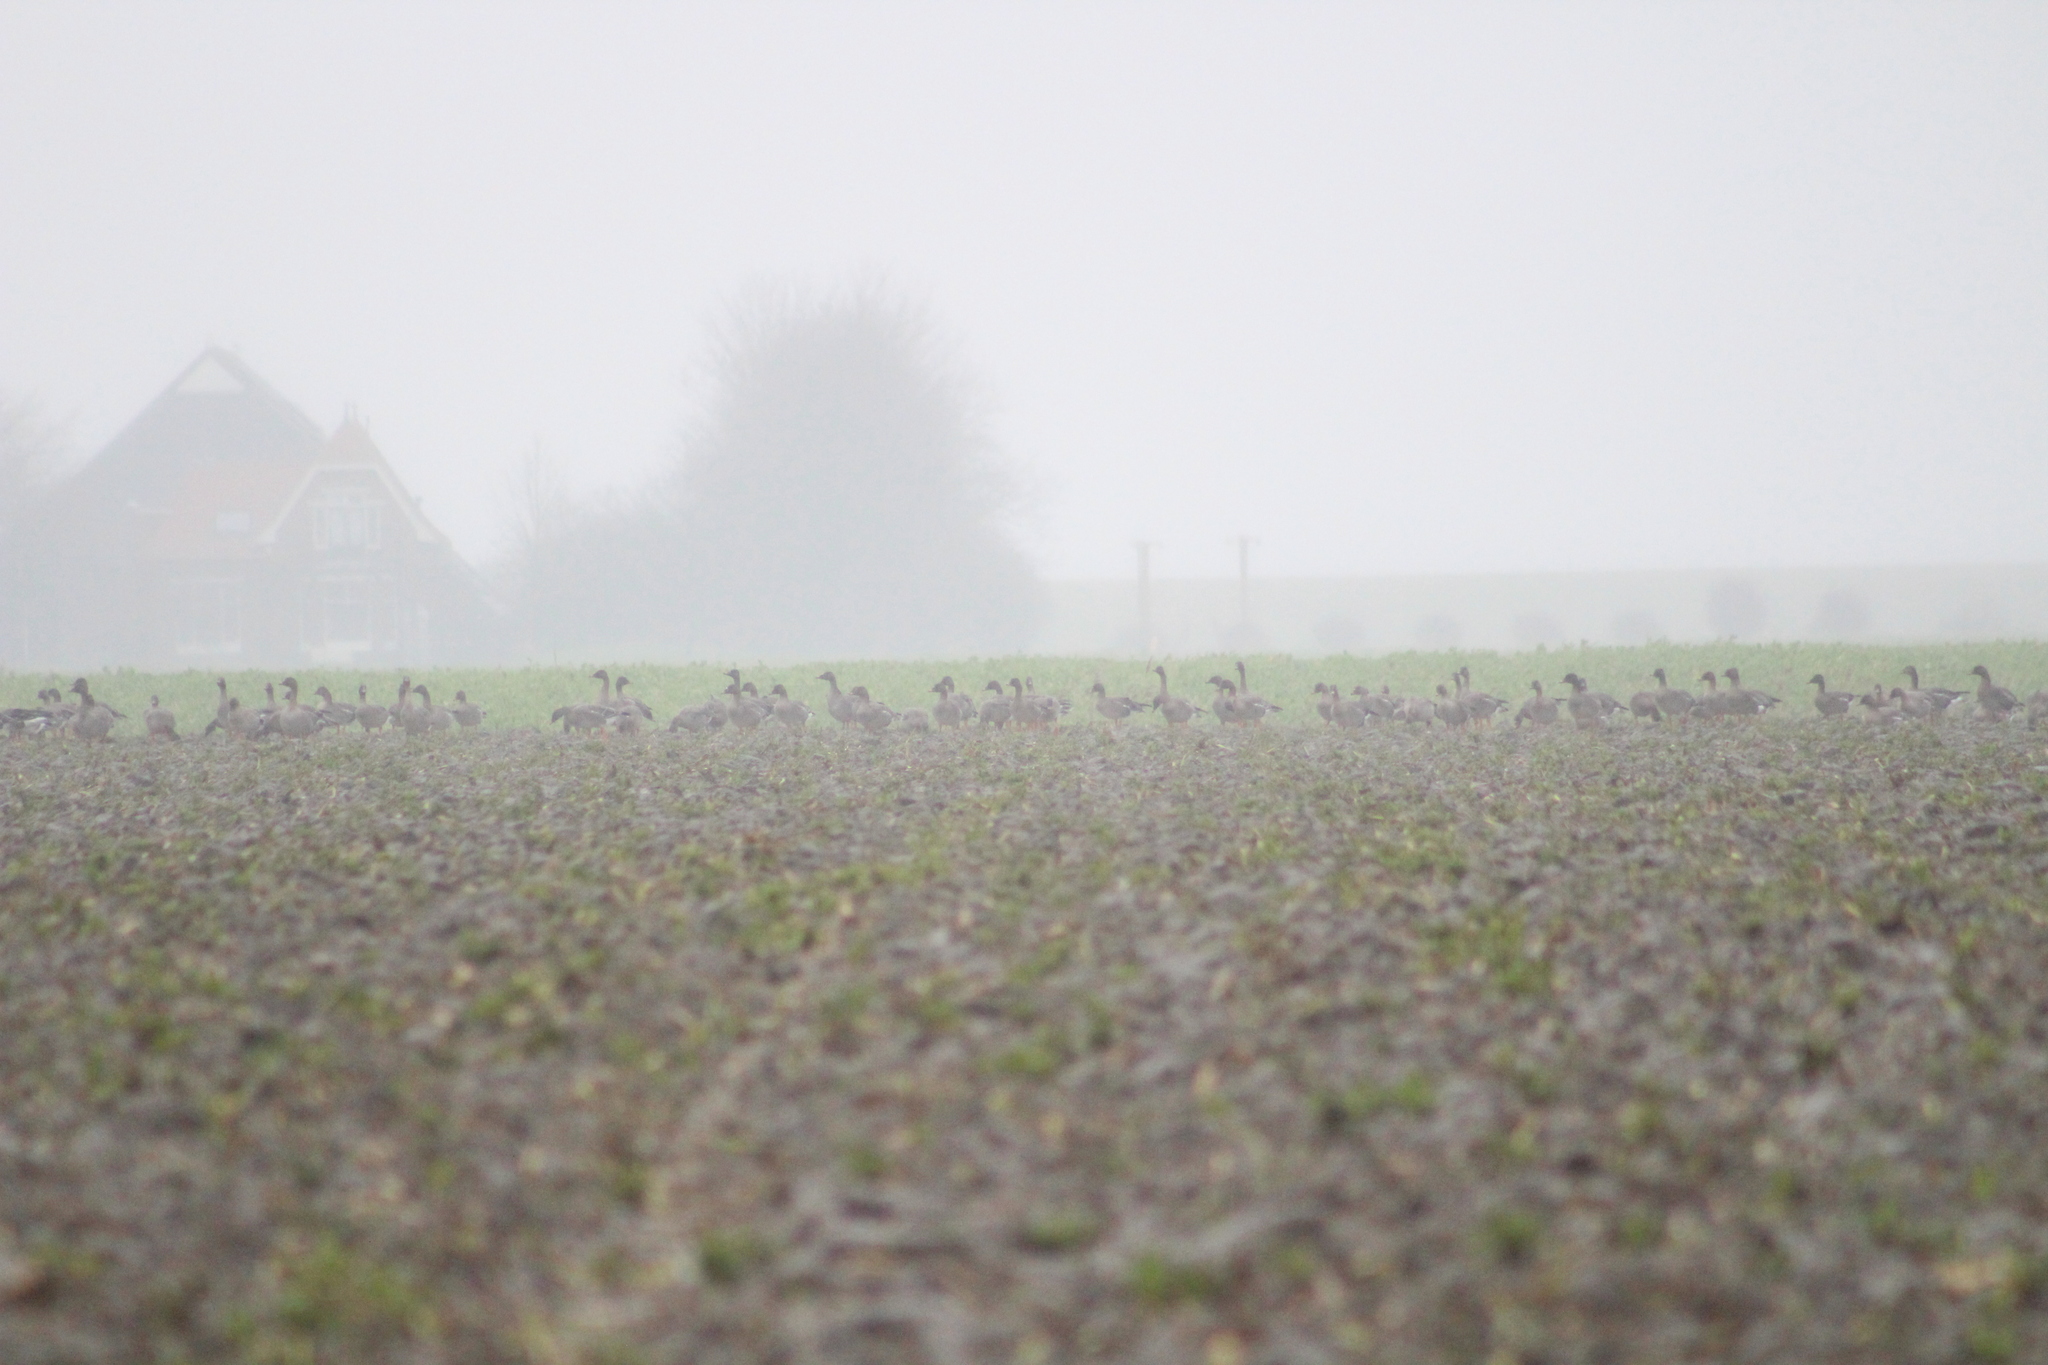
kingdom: Animalia
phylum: Chordata
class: Aves
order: Anseriformes
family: Anatidae
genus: Anser
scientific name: Anser brachyrhynchus
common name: Pink-footed goose
